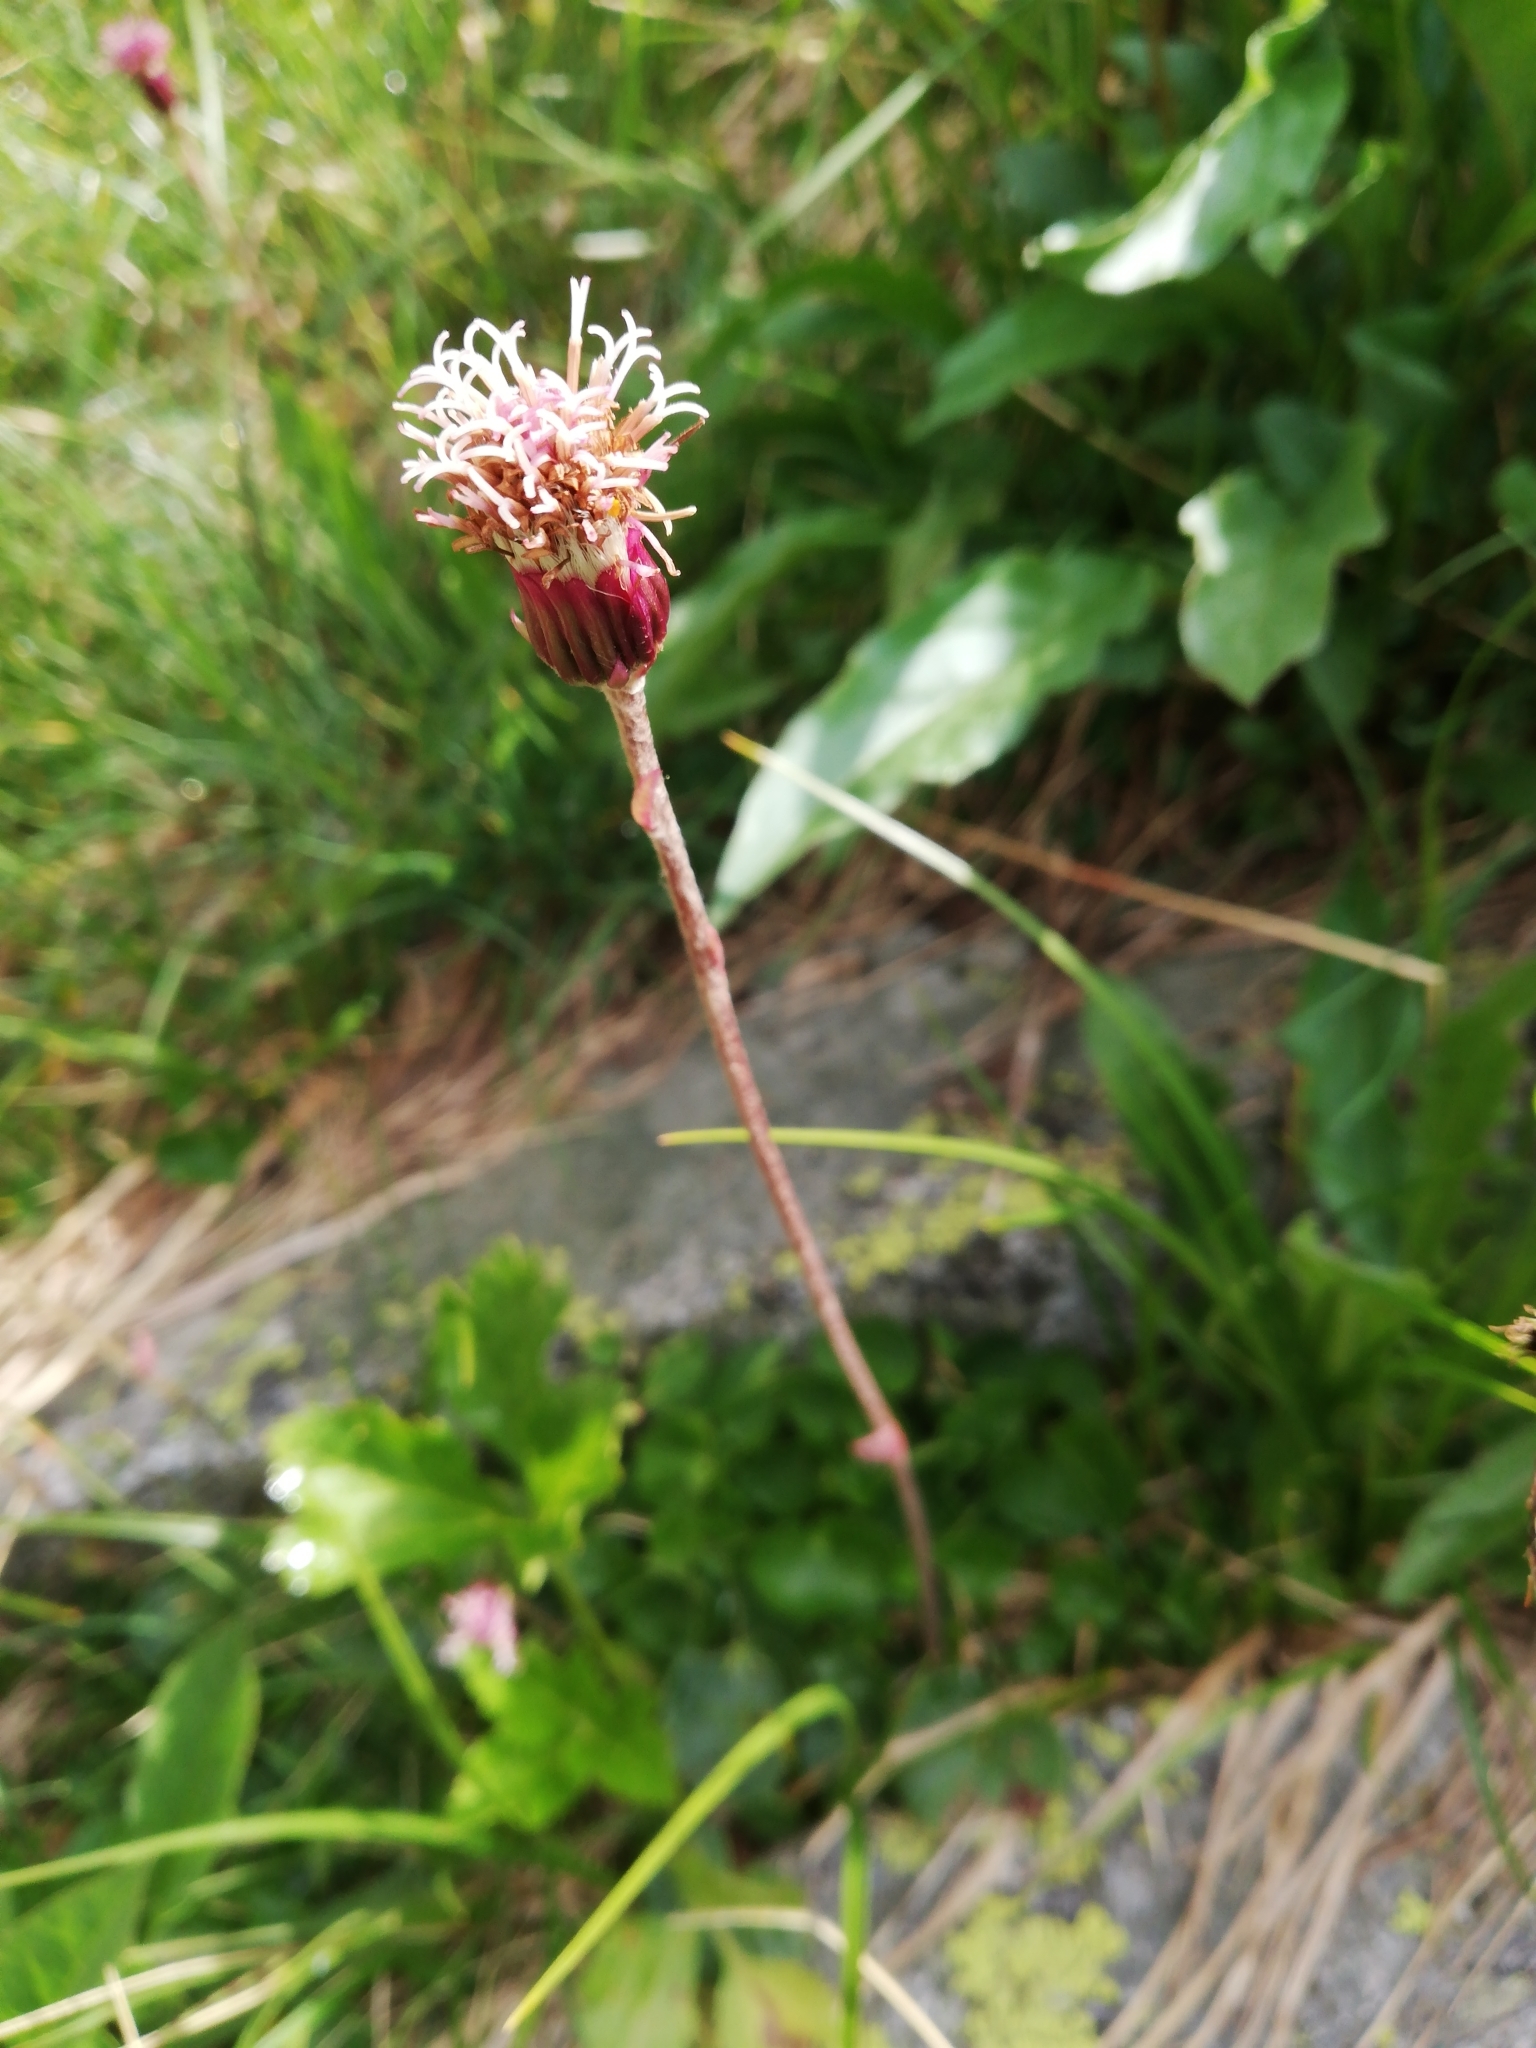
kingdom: Plantae
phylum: Tracheophyta
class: Magnoliopsida
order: Asterales
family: Asteraceae
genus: Homogyne
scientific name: Homogyne alpina
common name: Purple colt's-foot
